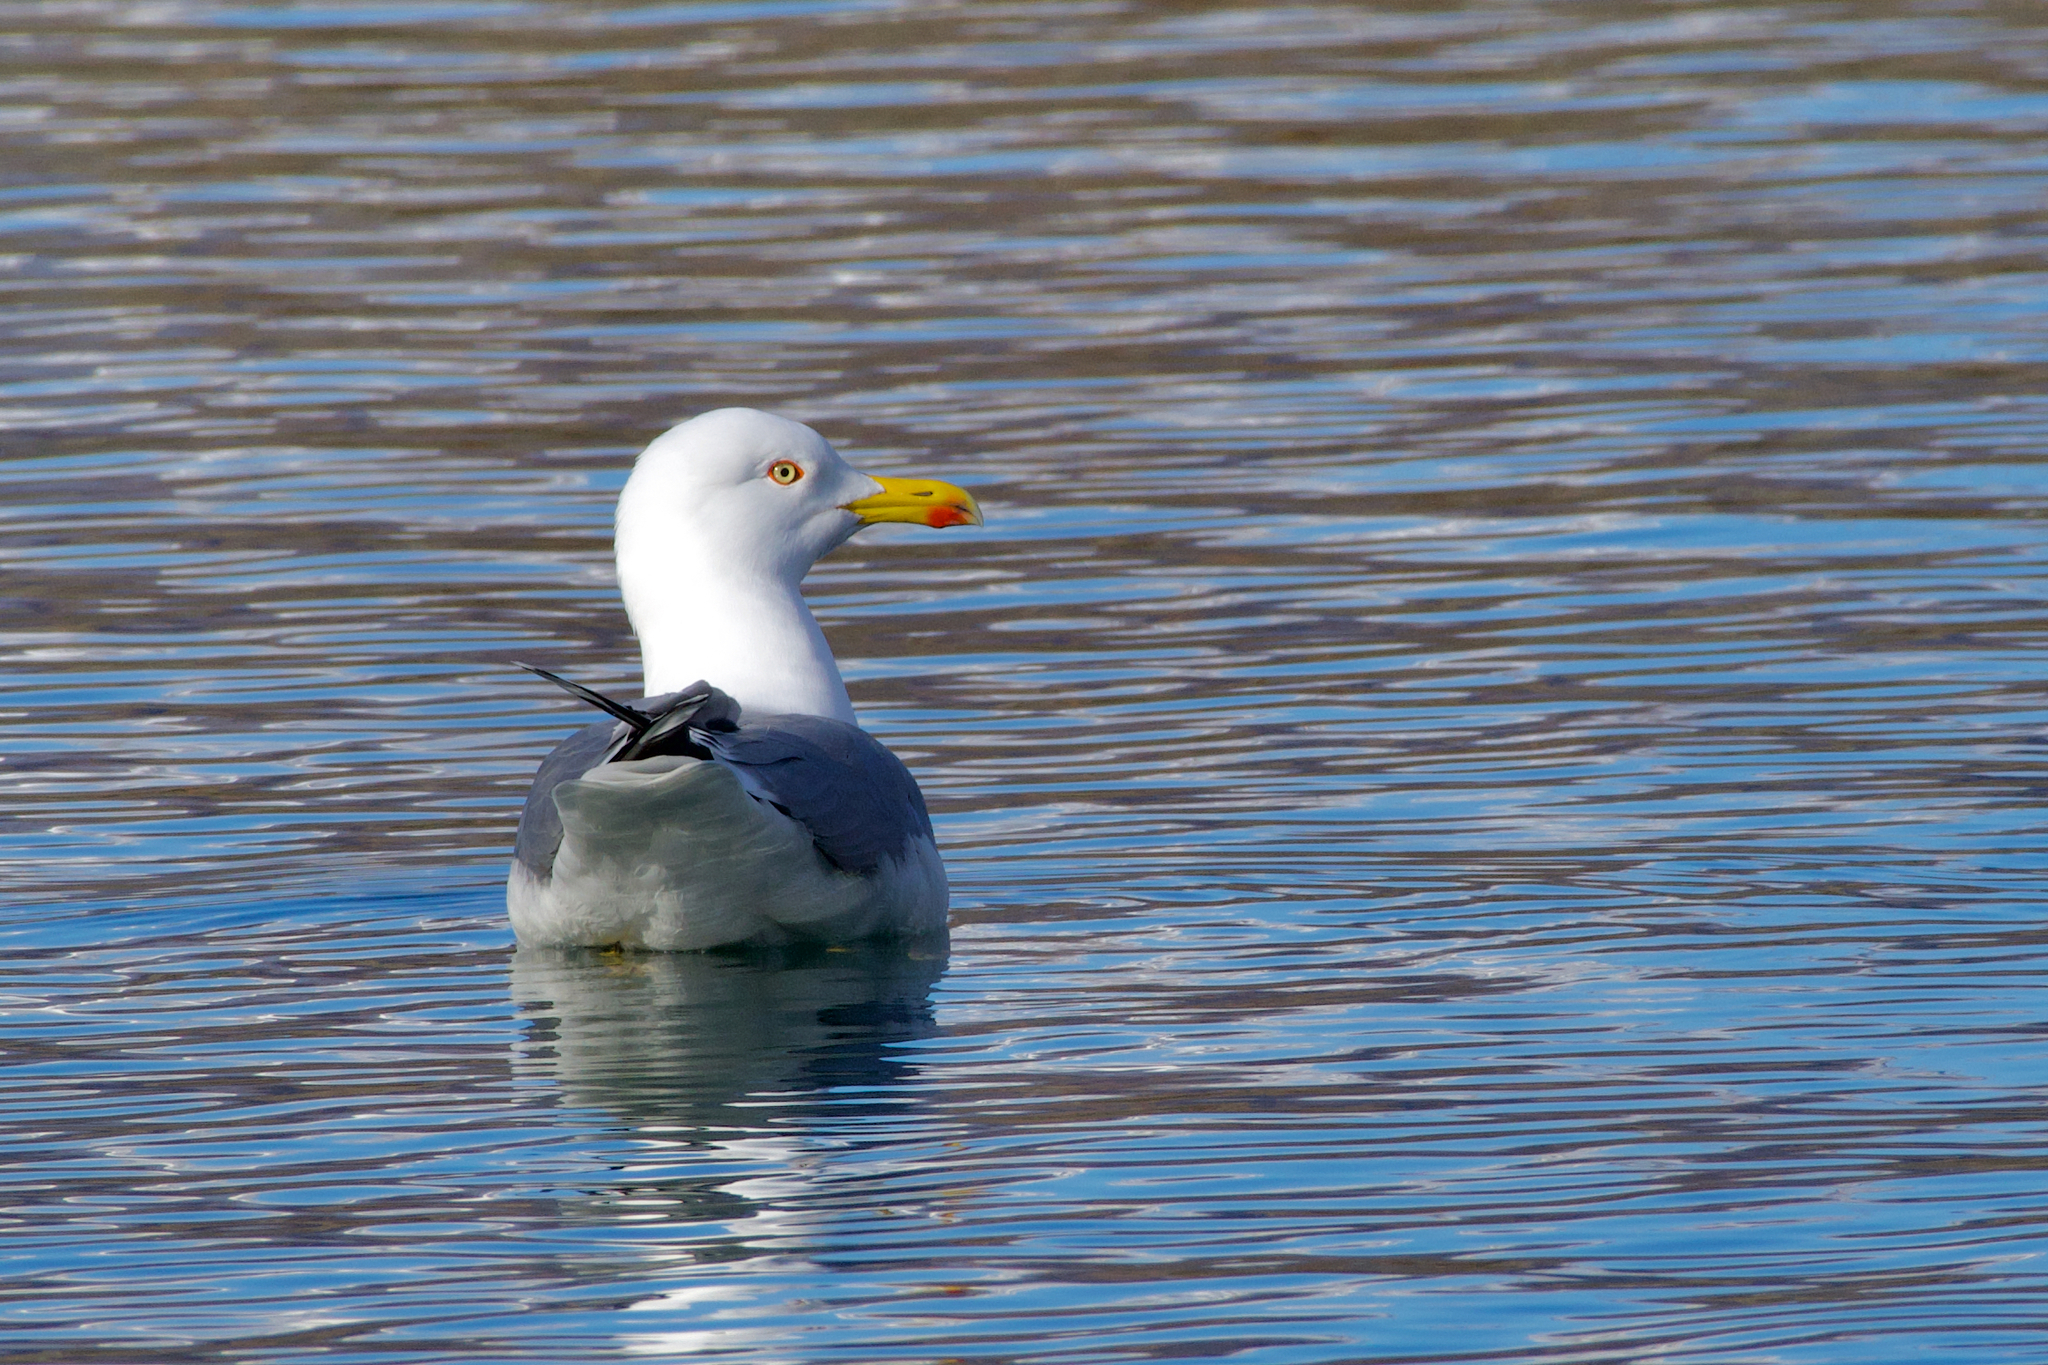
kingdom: Animalia
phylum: Chordata
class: Aves
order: Charadriiformes
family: Laridae
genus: Larus
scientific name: Larus michahellis
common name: Yellow-legged gull
